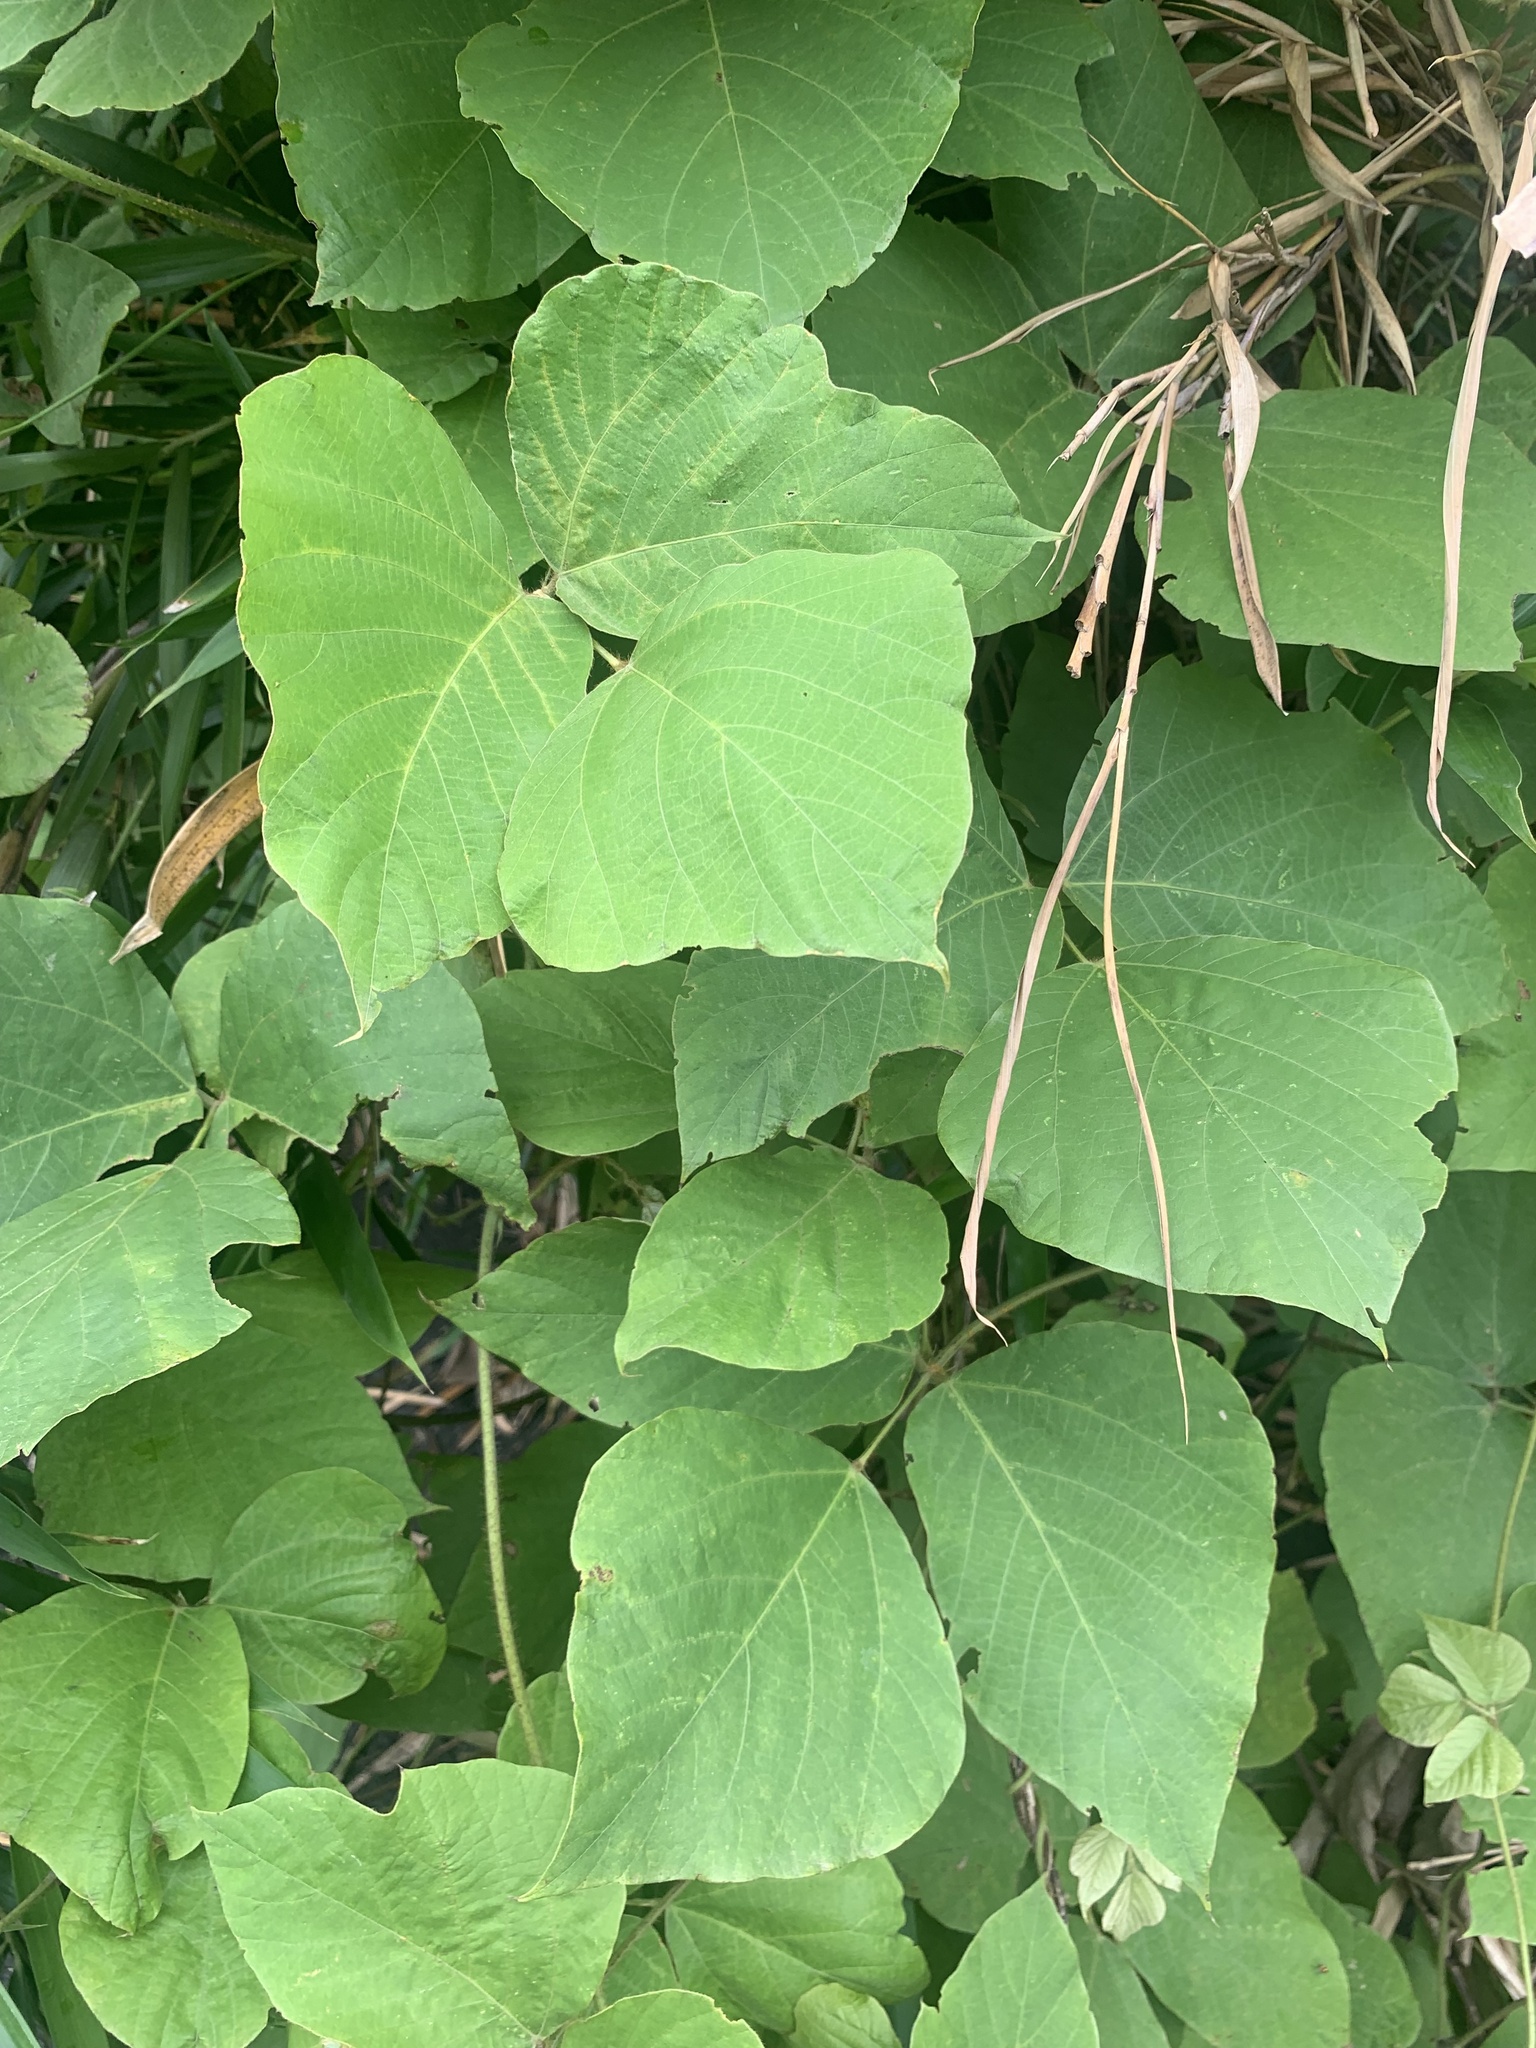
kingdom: Plantae
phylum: Tracheophyta
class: Magnoliopsida
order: Fabales
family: Fabaceae
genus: Pueraria
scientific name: Pueraria montana
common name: Kudzu
